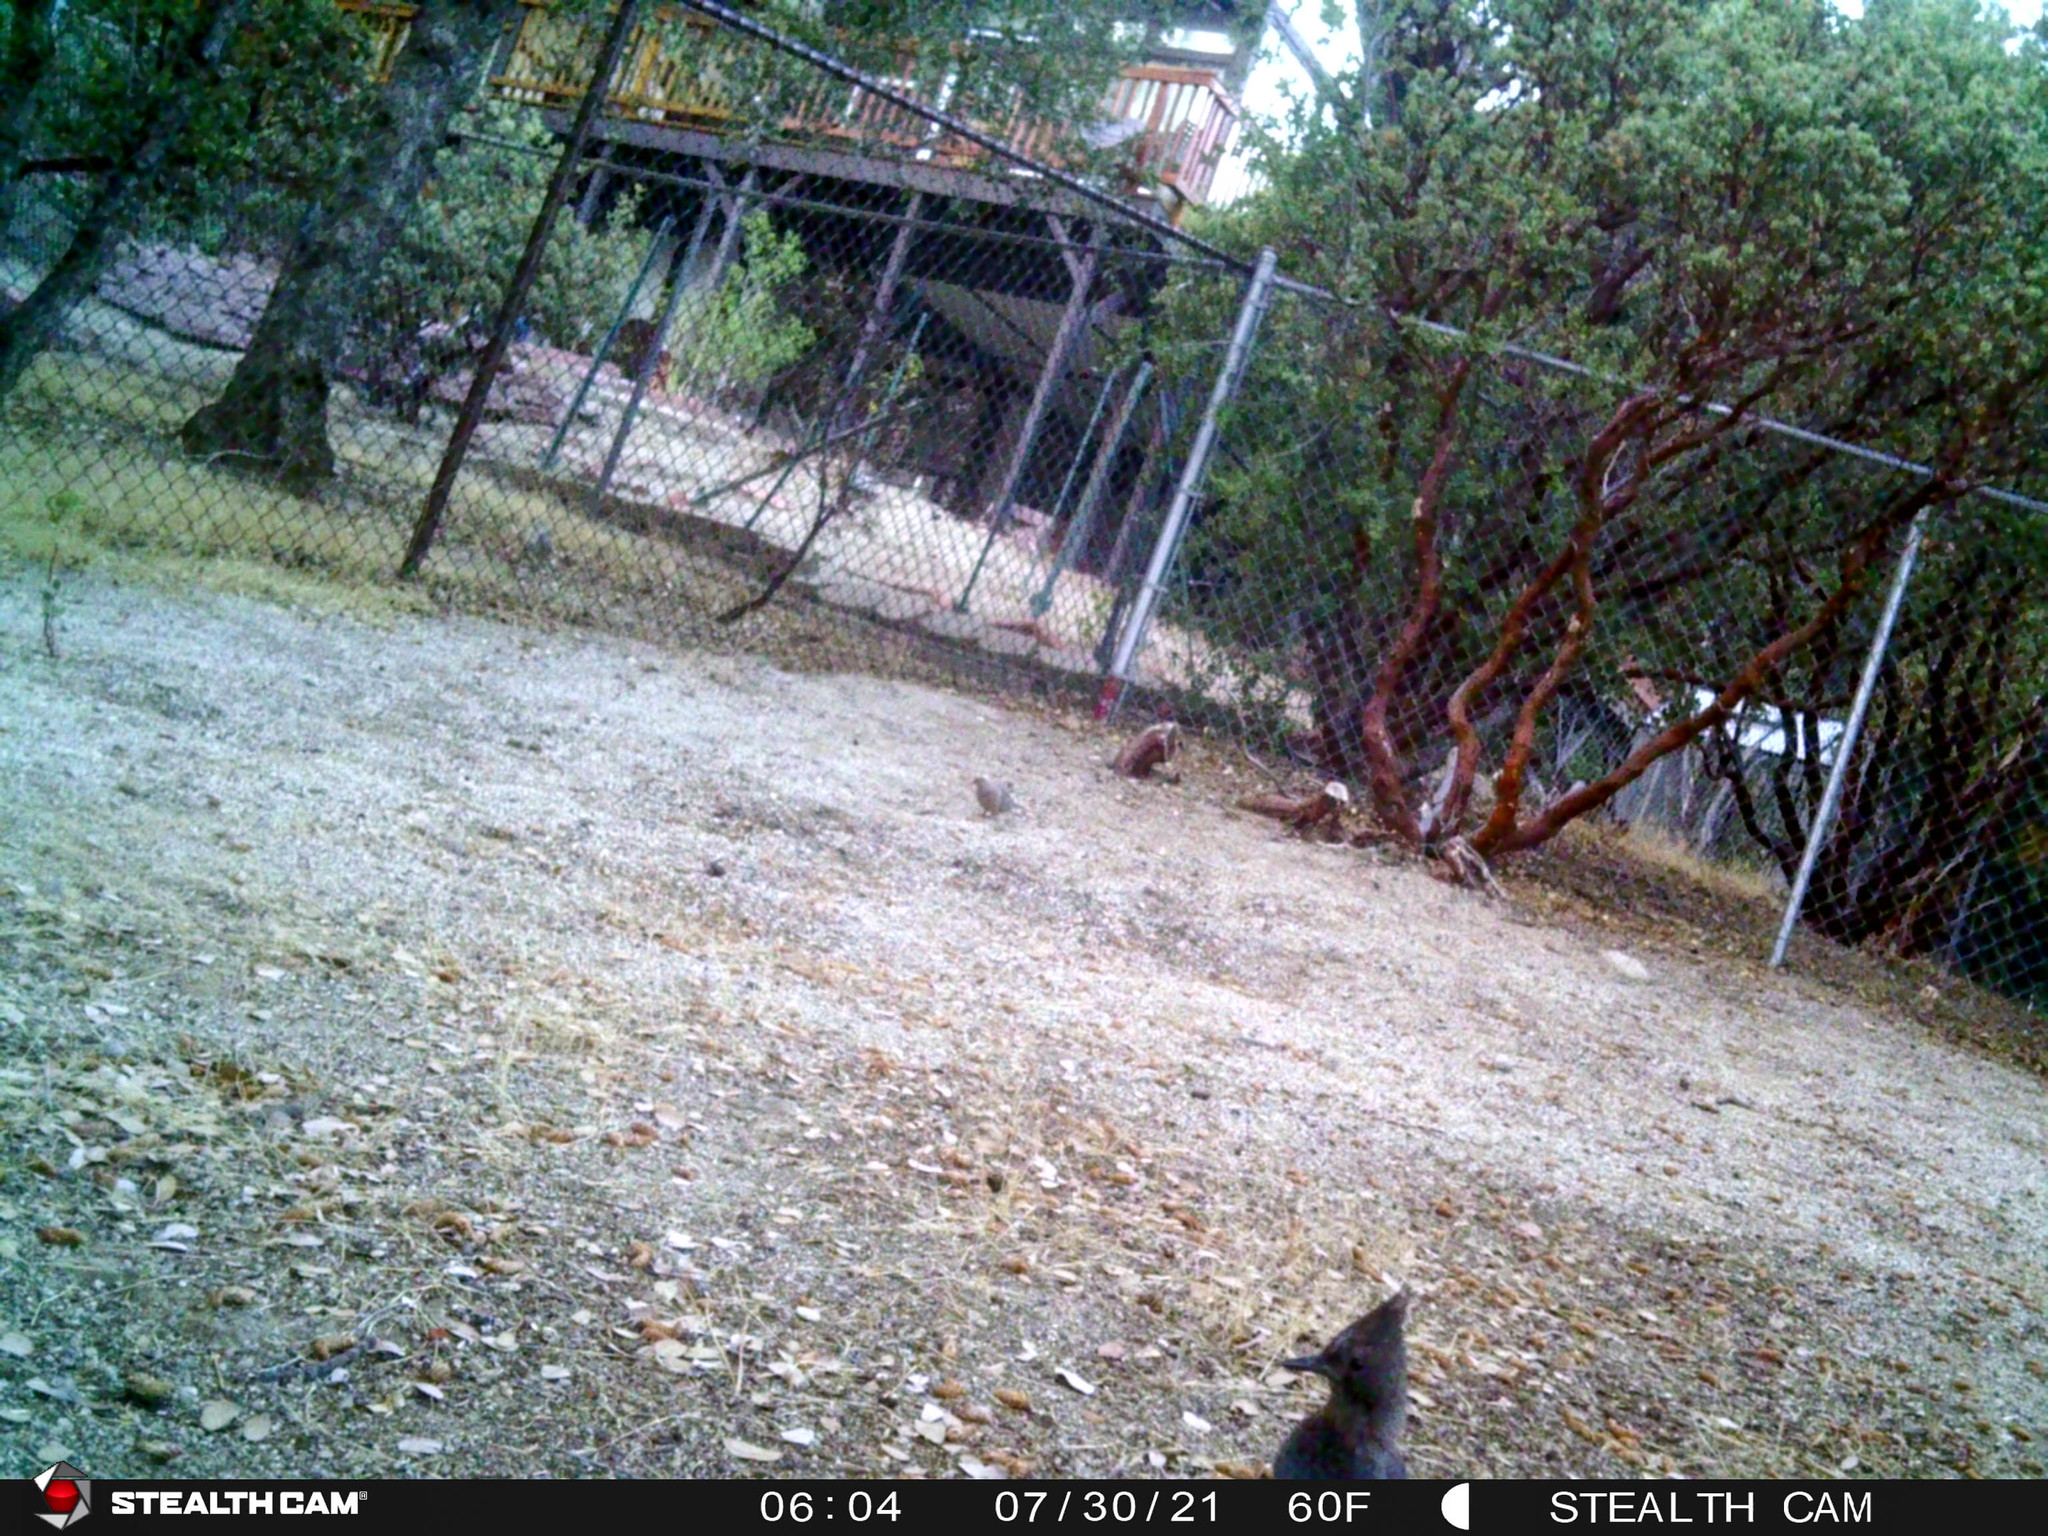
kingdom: Animalia
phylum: Chordata
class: Aves
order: Passeriformes
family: Corvidae
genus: Cyanocitta
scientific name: Cyanocitta stelleri
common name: Steller's jay
